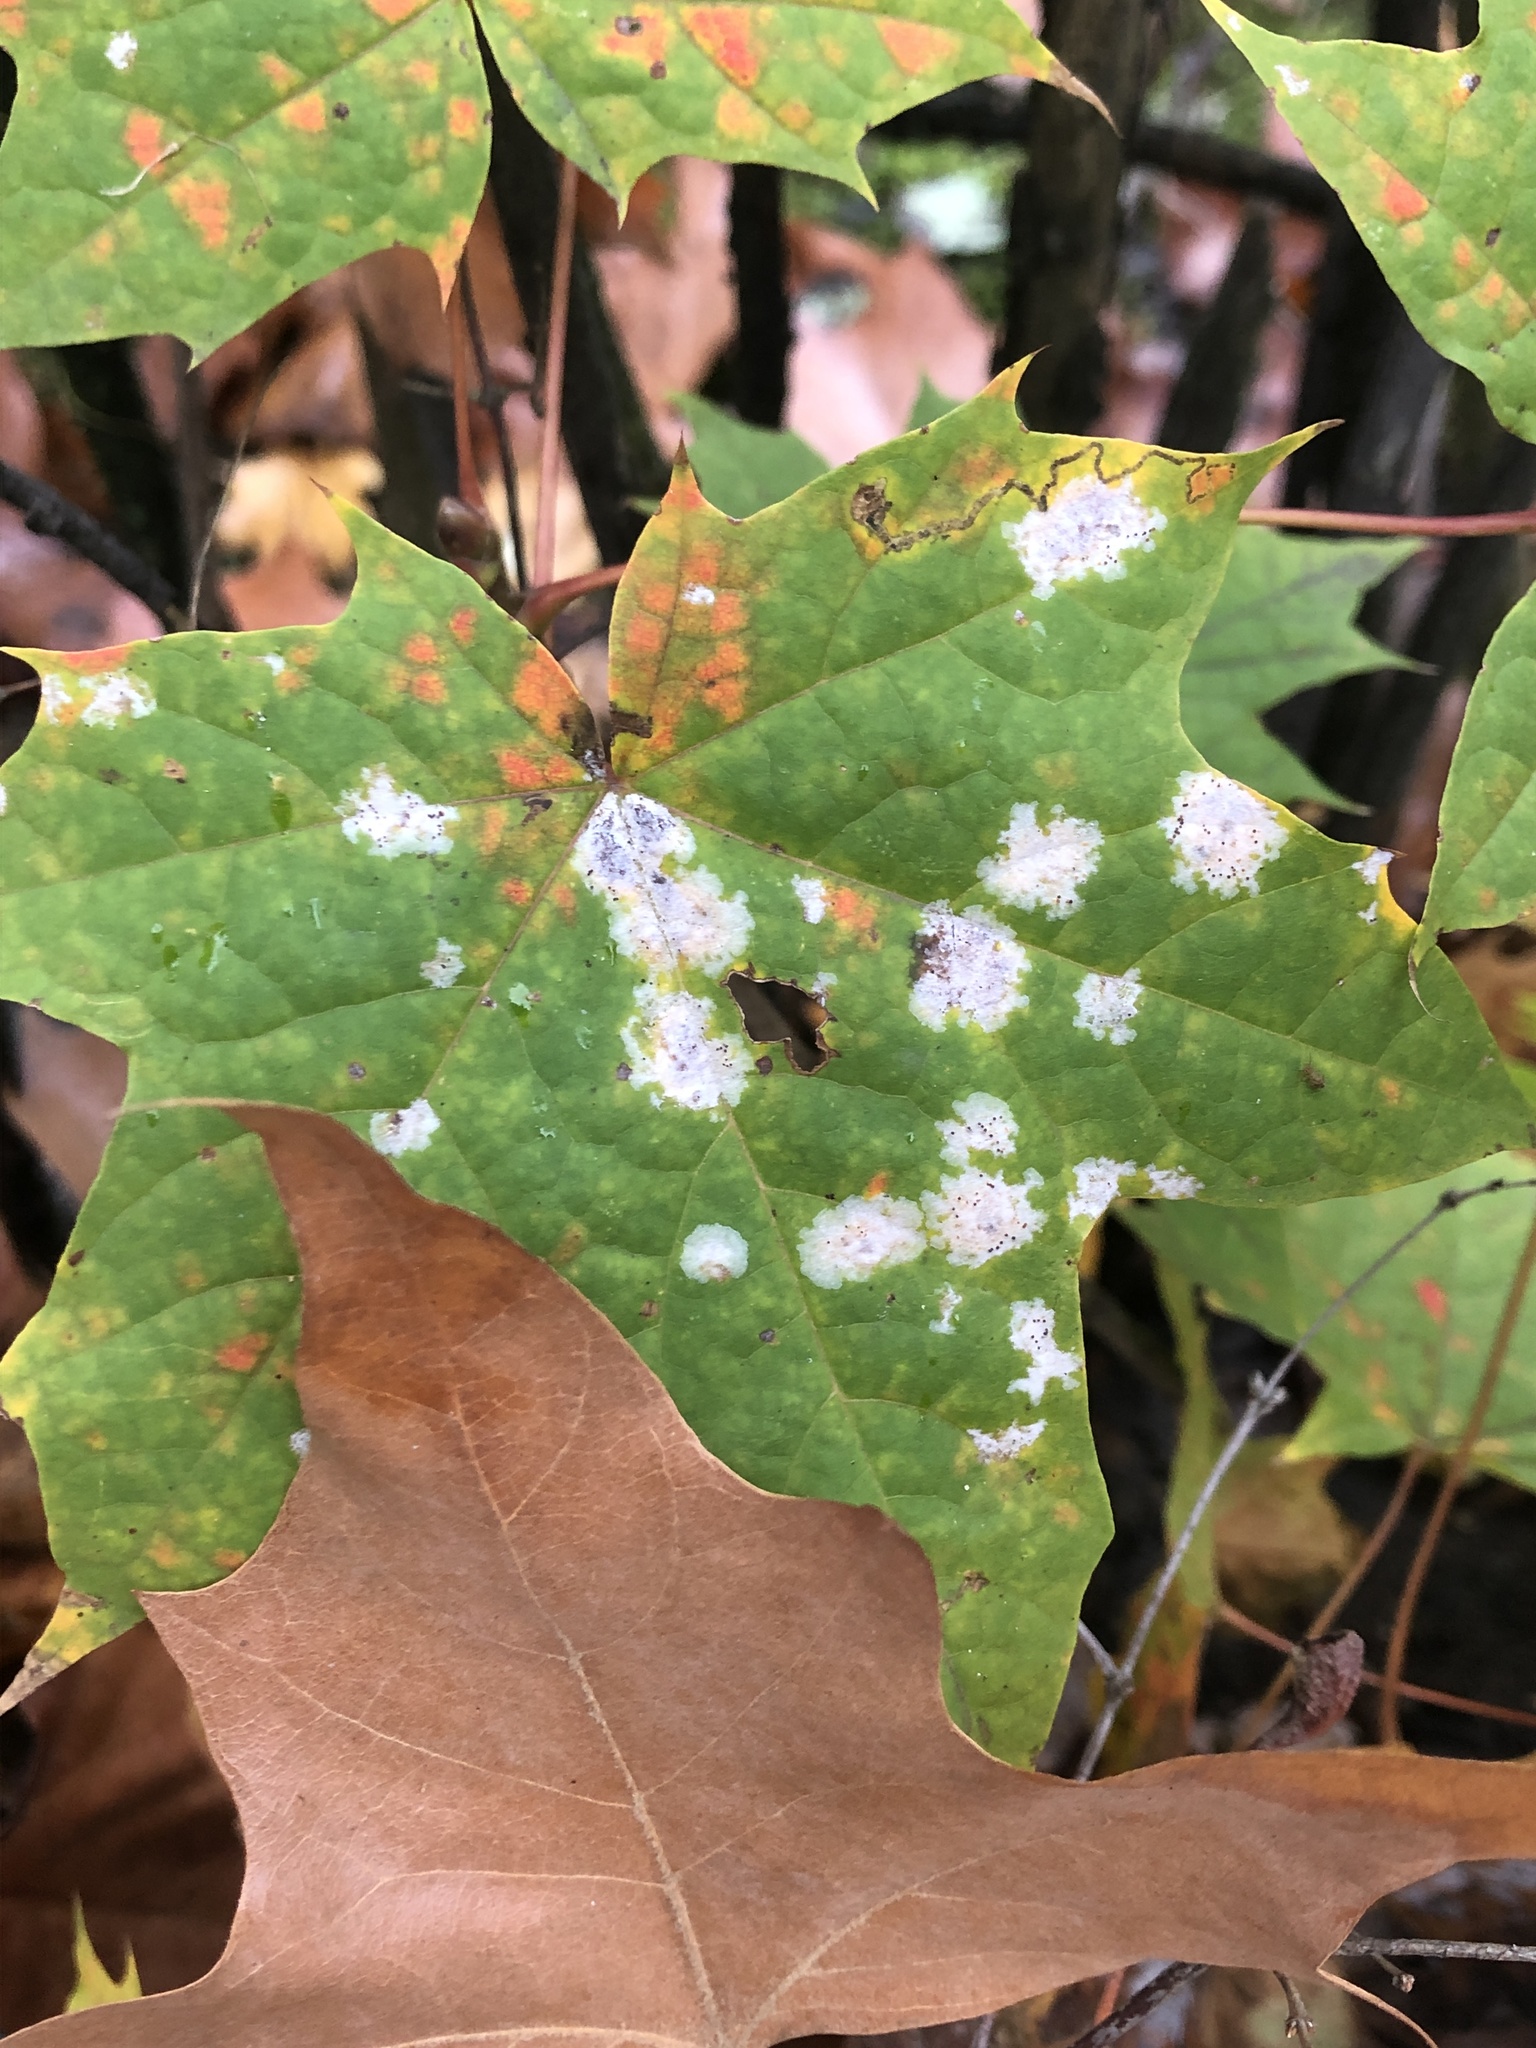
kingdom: Fungi
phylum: Ascomycota
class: Leotiomycetes
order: Helotiales
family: Erysiphaceae
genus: Sawadaea
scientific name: Sawadaea tulasnei
